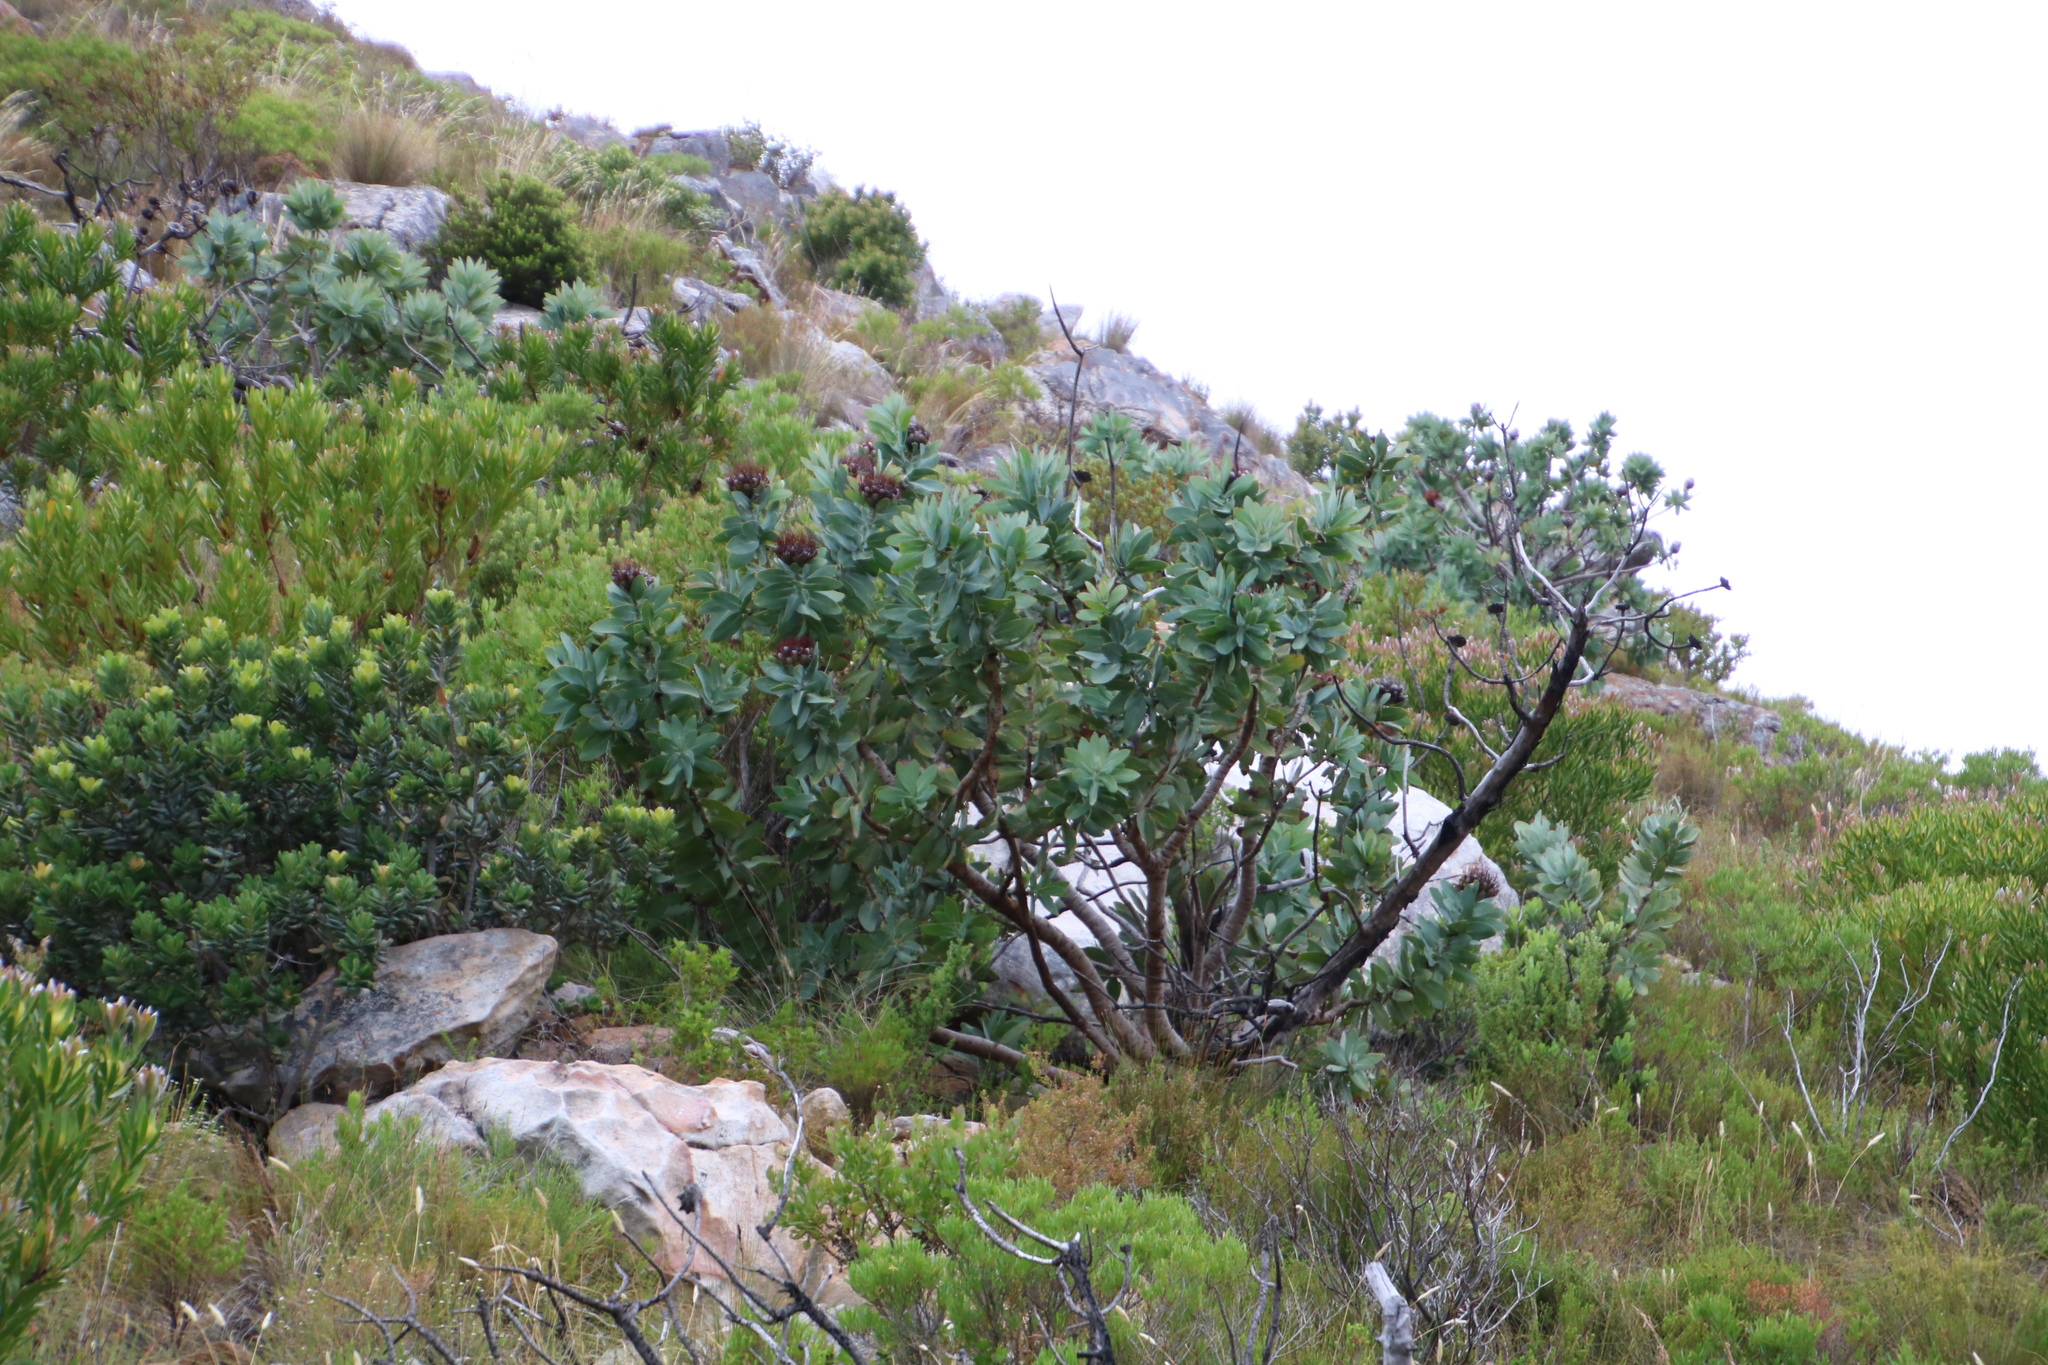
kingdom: Plantae
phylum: Tracheophyta
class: Magnoliopsida
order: Proteales
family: Proteaceae
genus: Protea
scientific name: Protea nitida
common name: Tree protea
